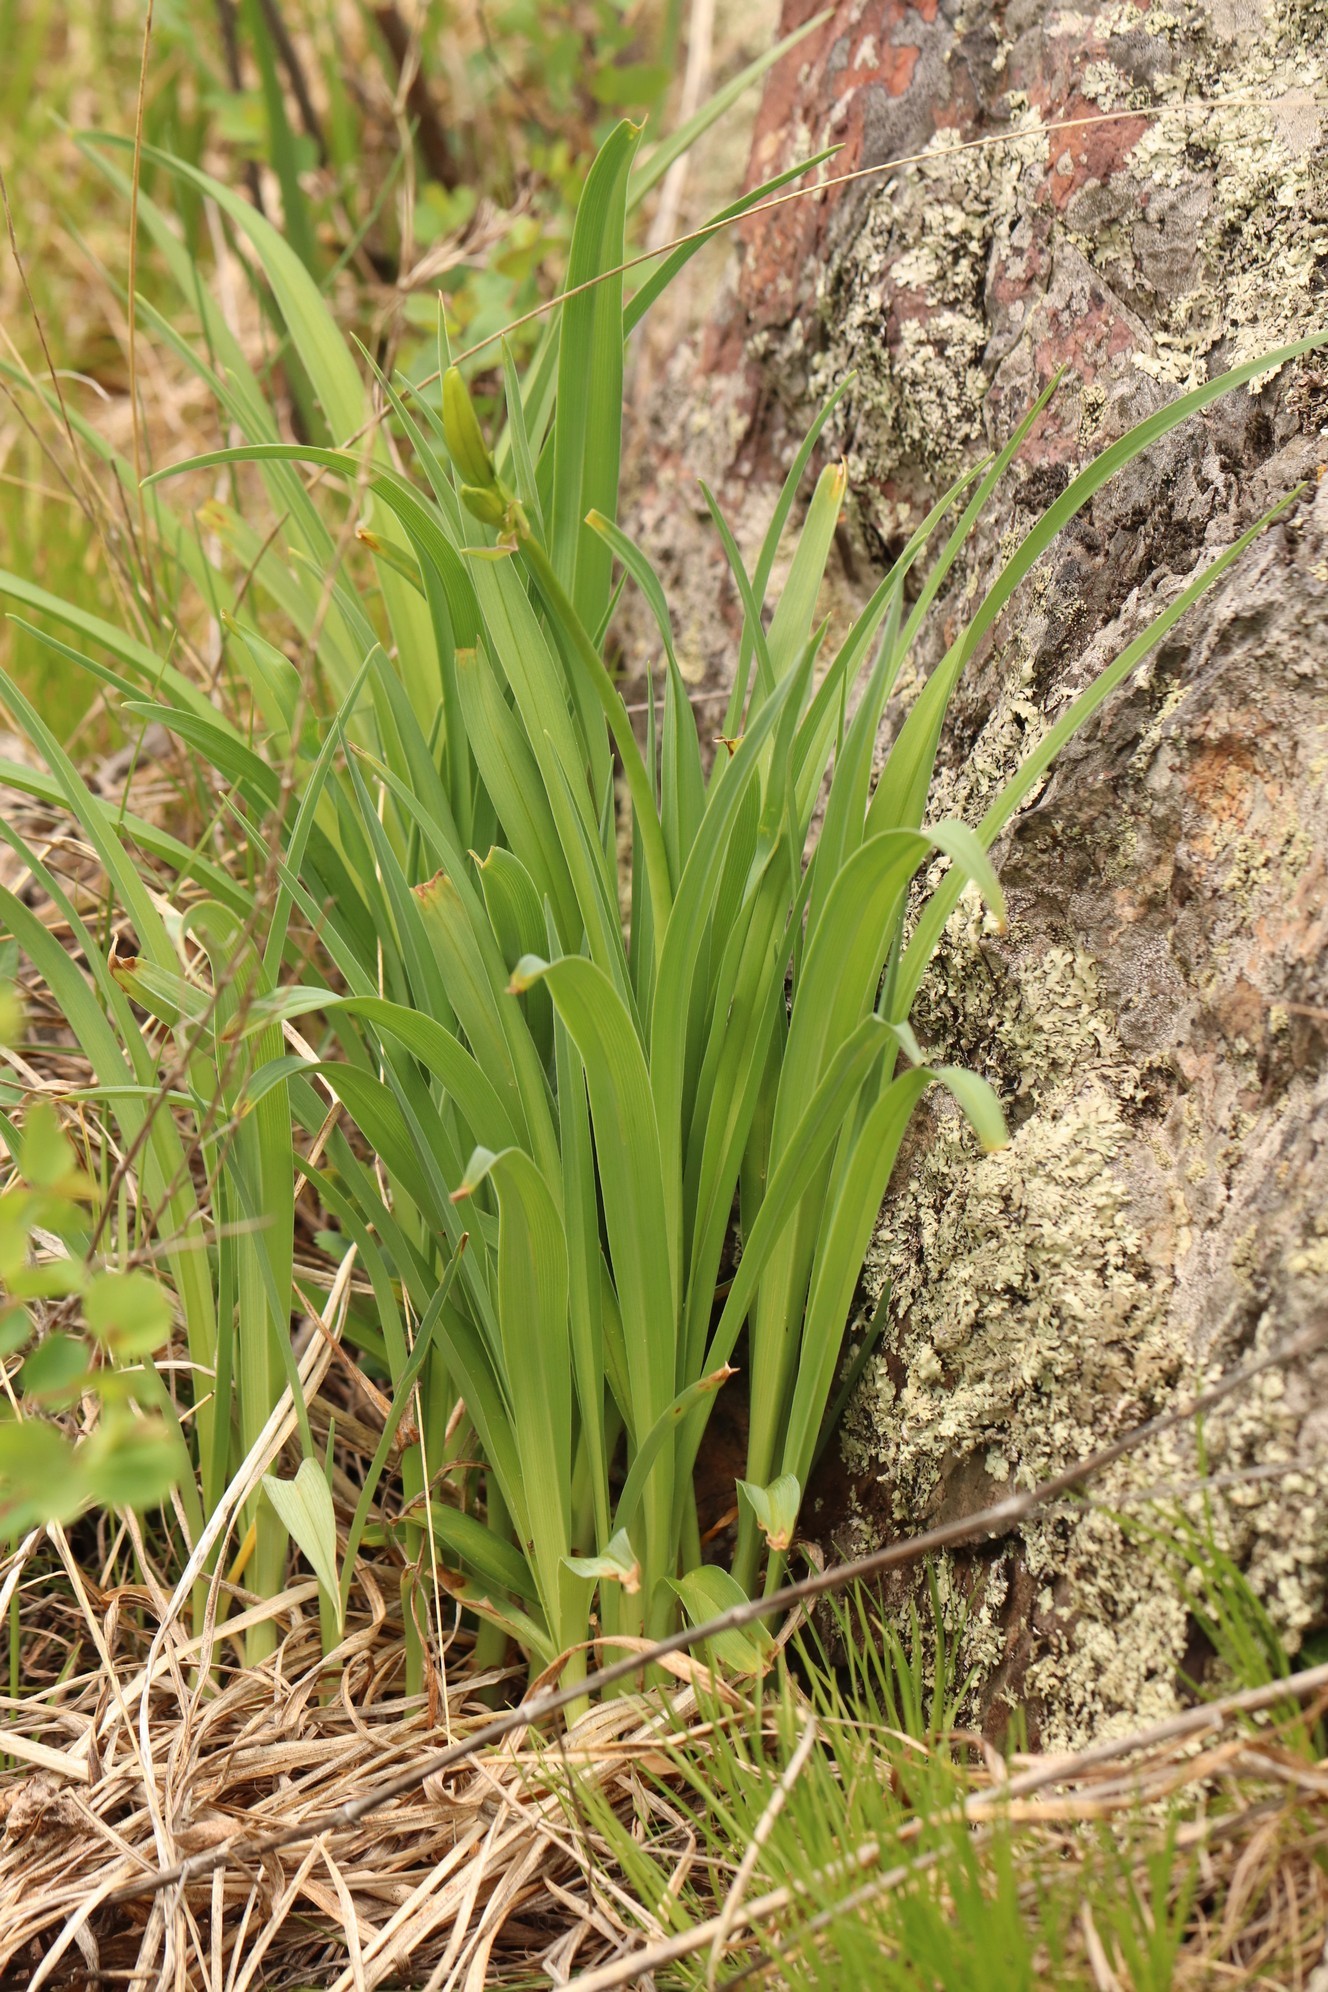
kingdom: Plantae
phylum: Tracheophyta
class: Liliopsida
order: Asparagales
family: Asphodelaceae
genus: Hemerocallis
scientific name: Hemerocallis minor
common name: Small daylily
